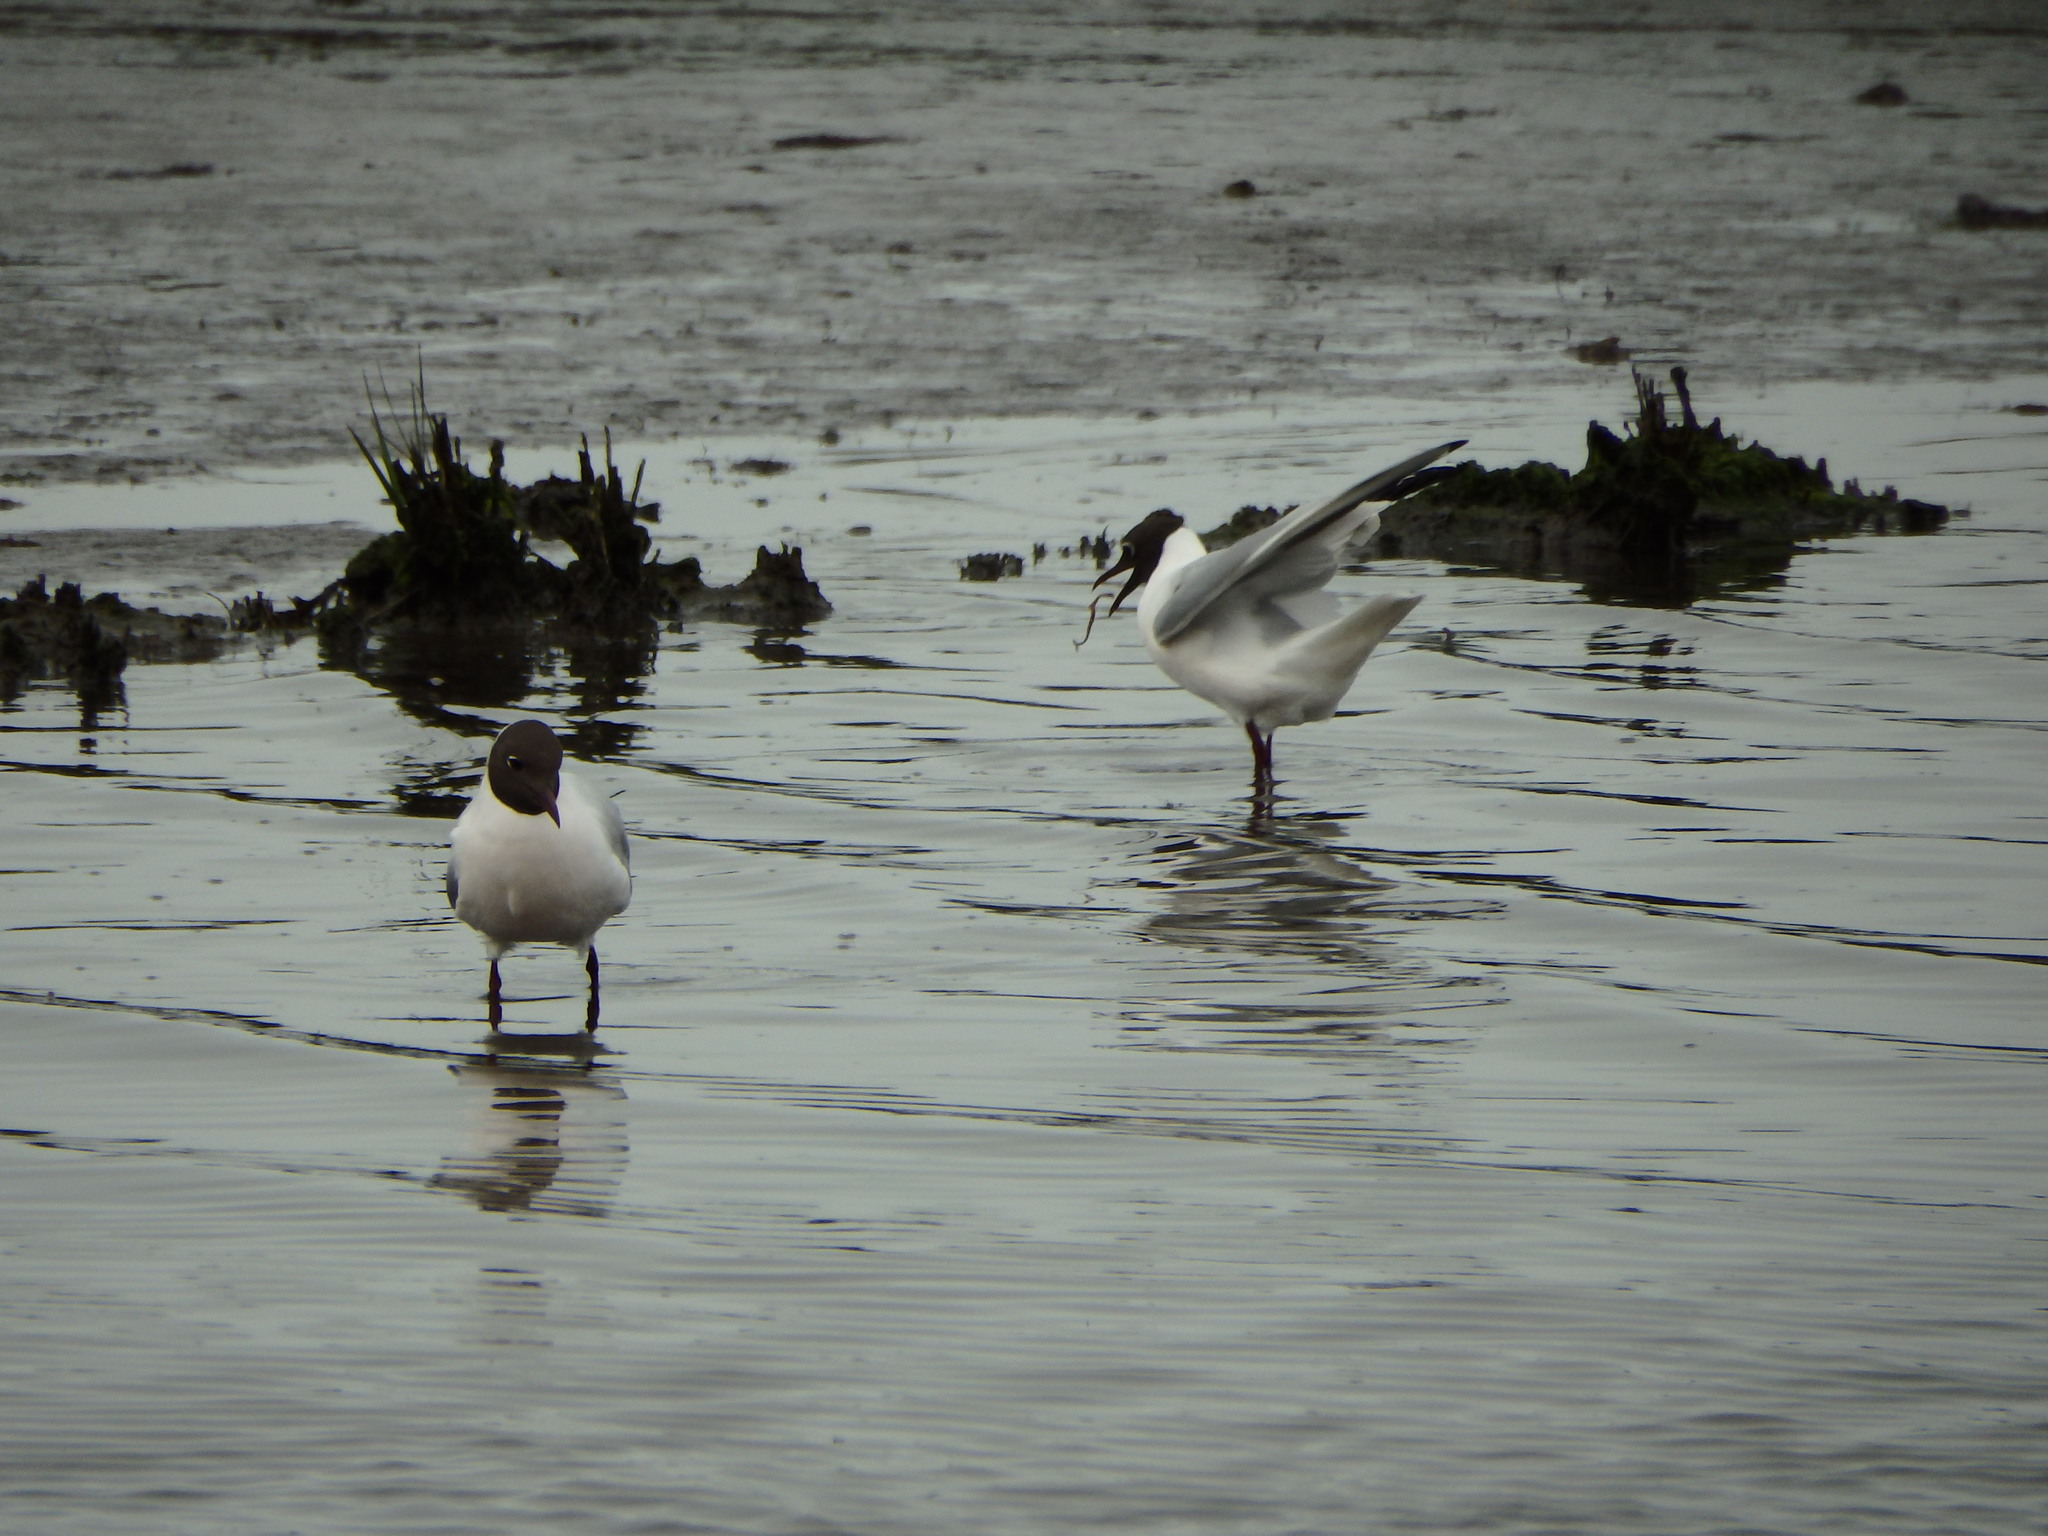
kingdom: Animalia
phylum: Chordata
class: Aves
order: Charadriiformes
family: Laridae
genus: Chroicocephalus
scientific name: Chroicocephalus ridibundus
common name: Black-headed gull
